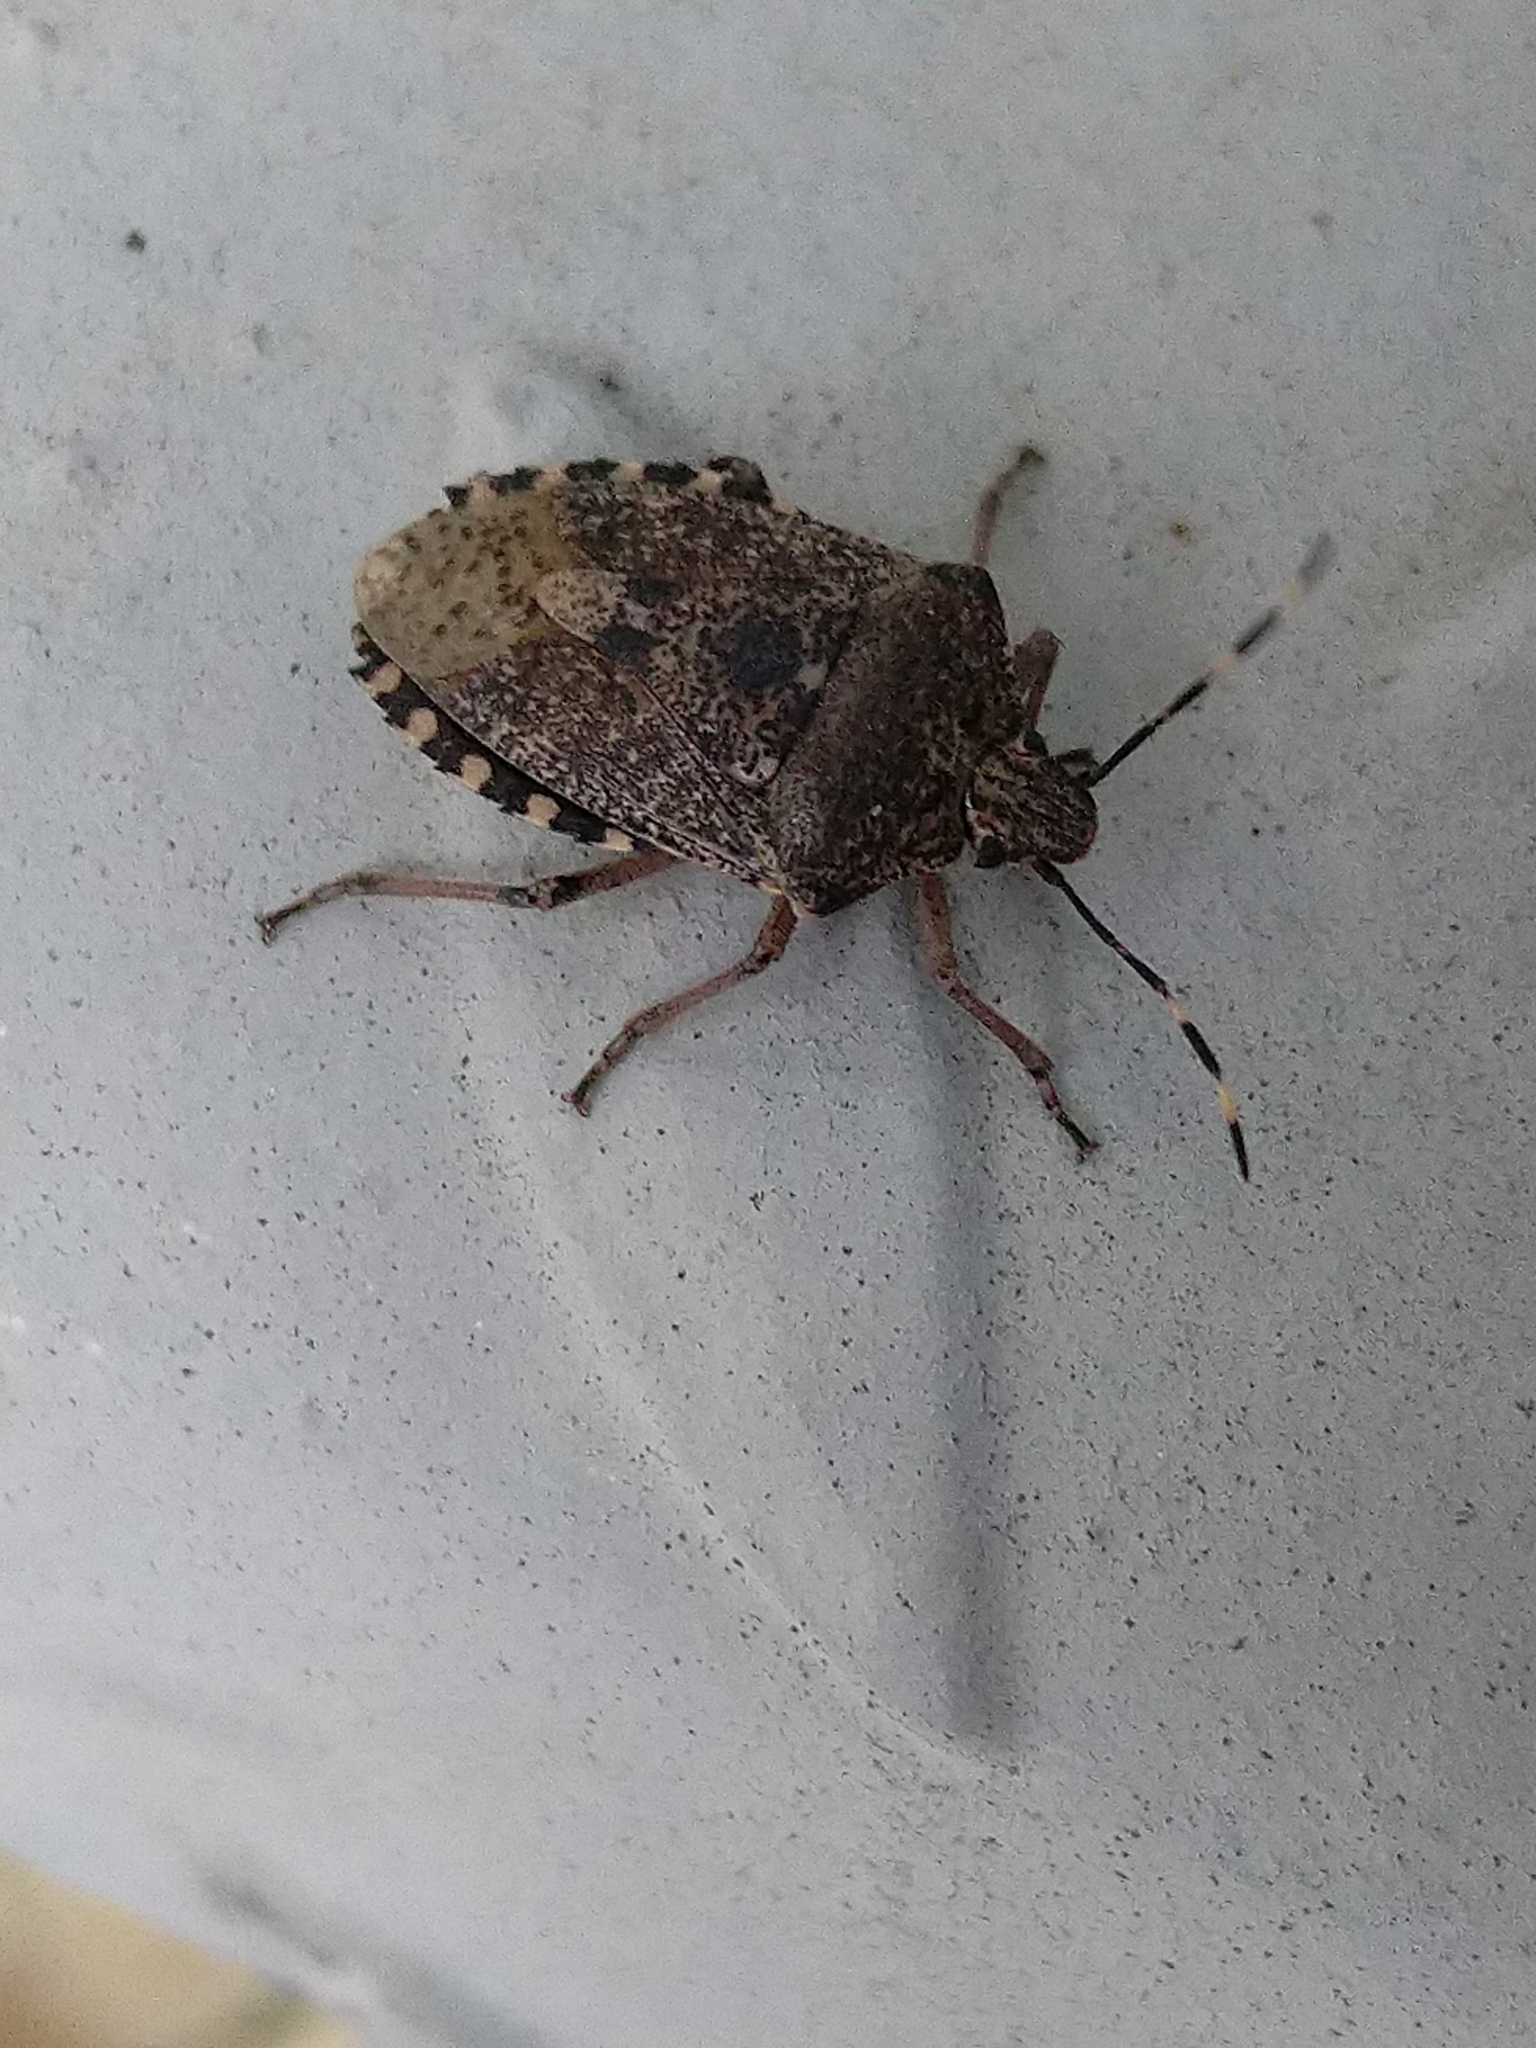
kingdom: Animalia
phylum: Arthropoda
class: Insecta
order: Hemiptera
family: Pentatomidae
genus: Rhaphigaster
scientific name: Rhaphigaster nebulosa
